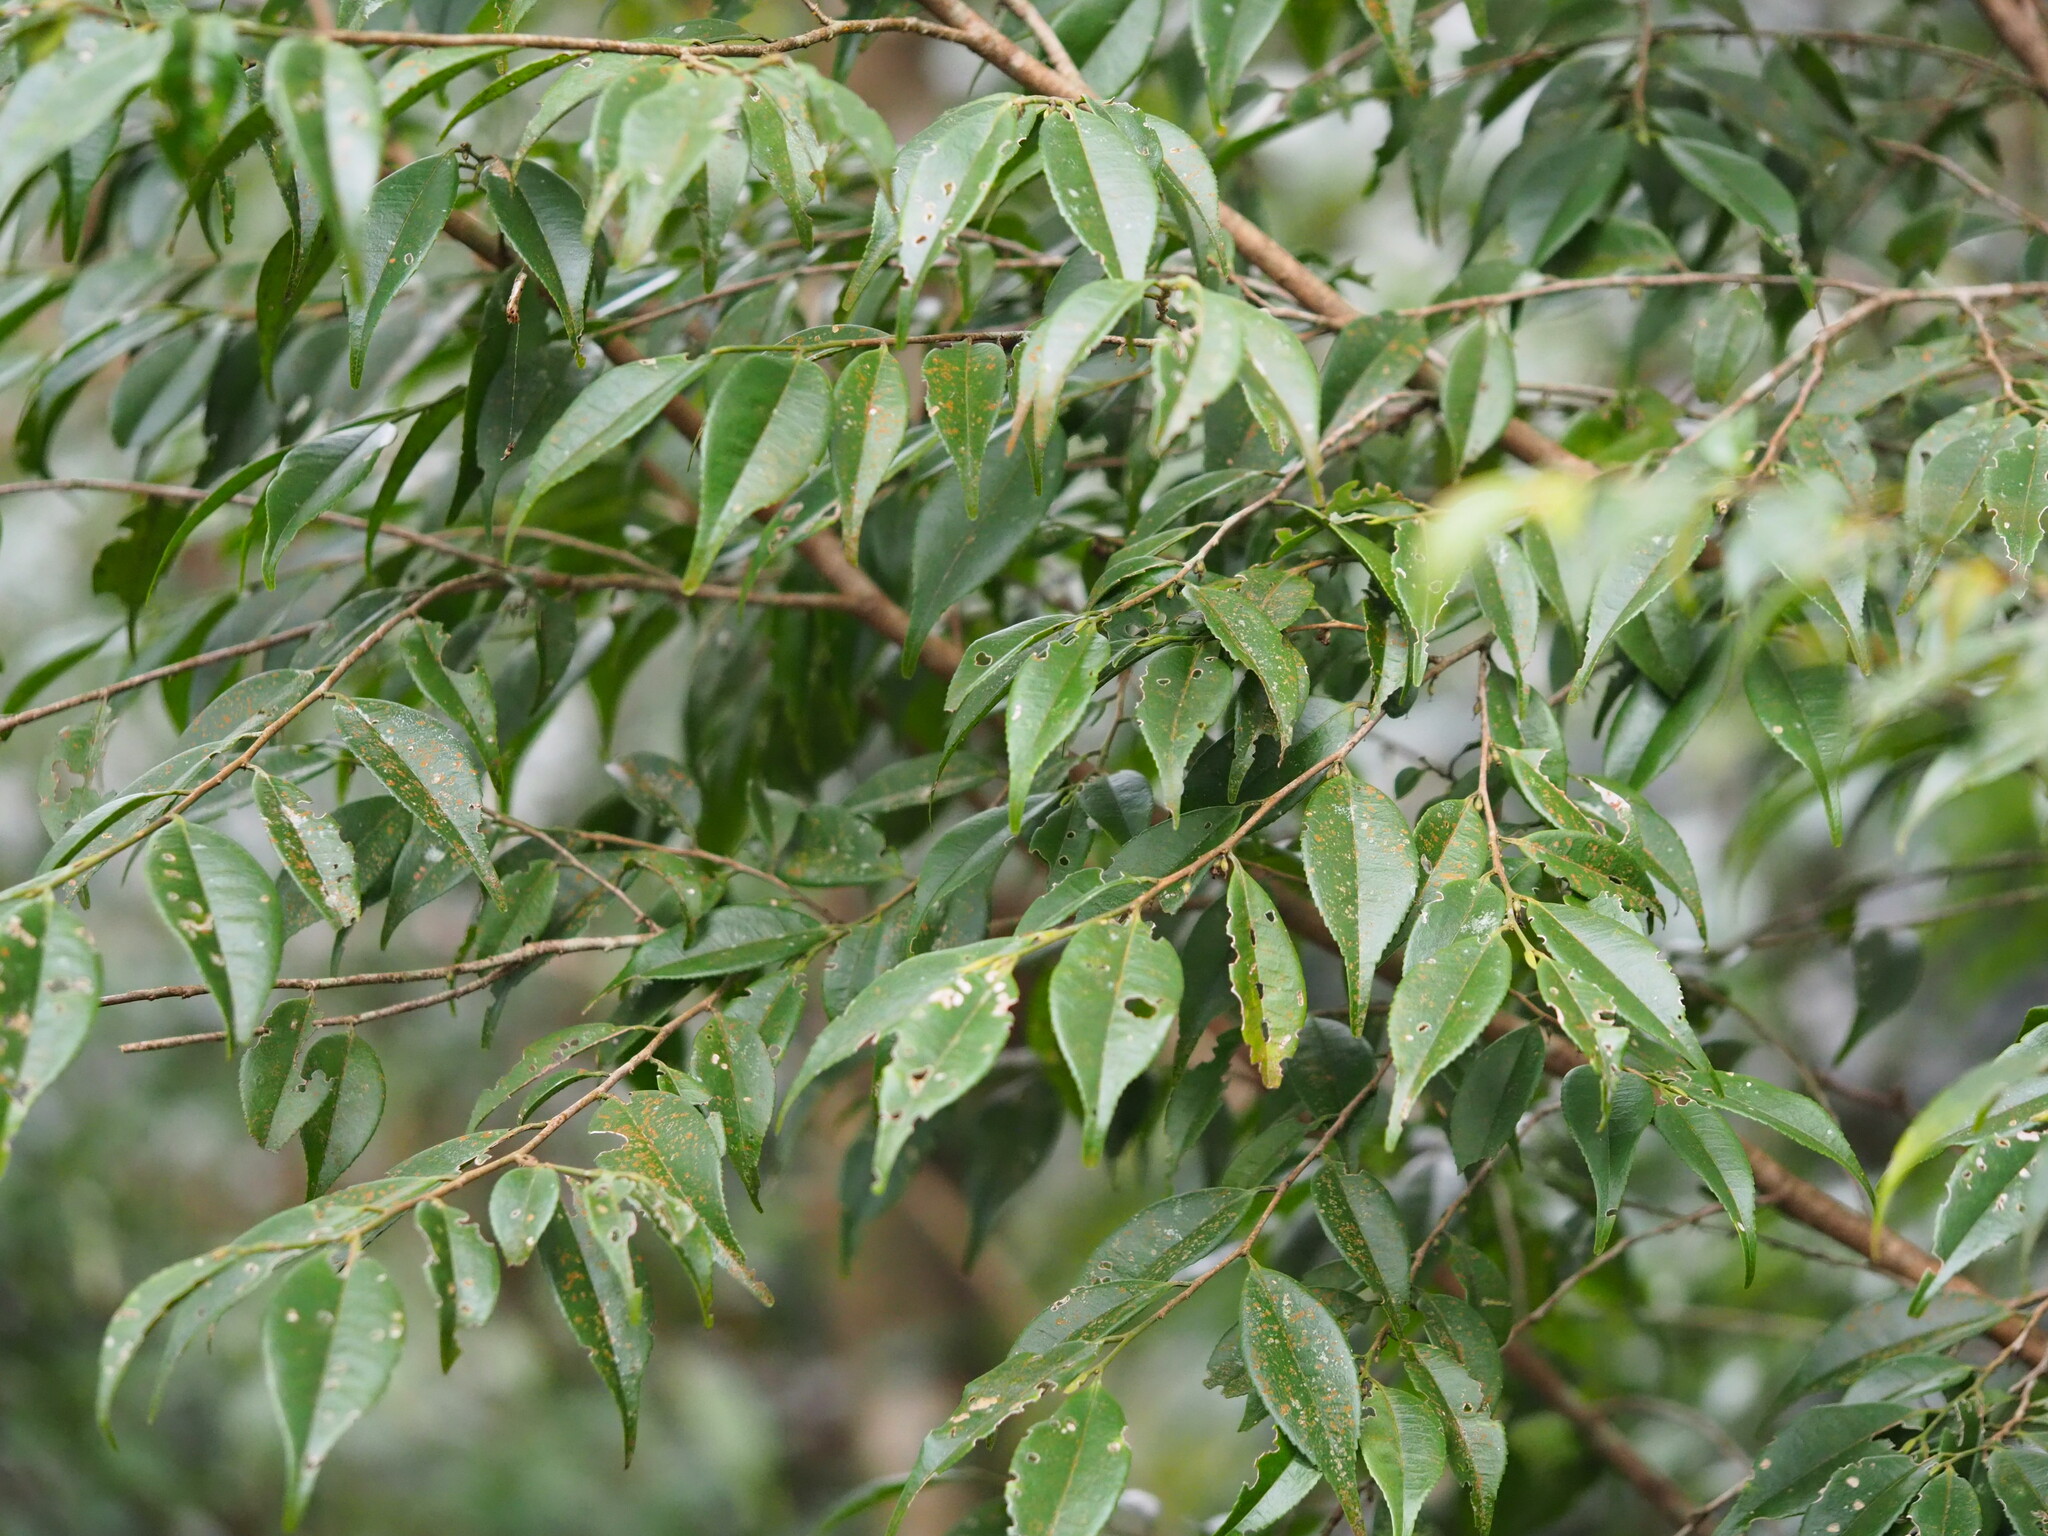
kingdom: Plantae
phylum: Tracheophyta
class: Magnoliopsida
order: Ericales
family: Pentaphylacaceae
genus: Eurya
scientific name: Eurya loquaiana
